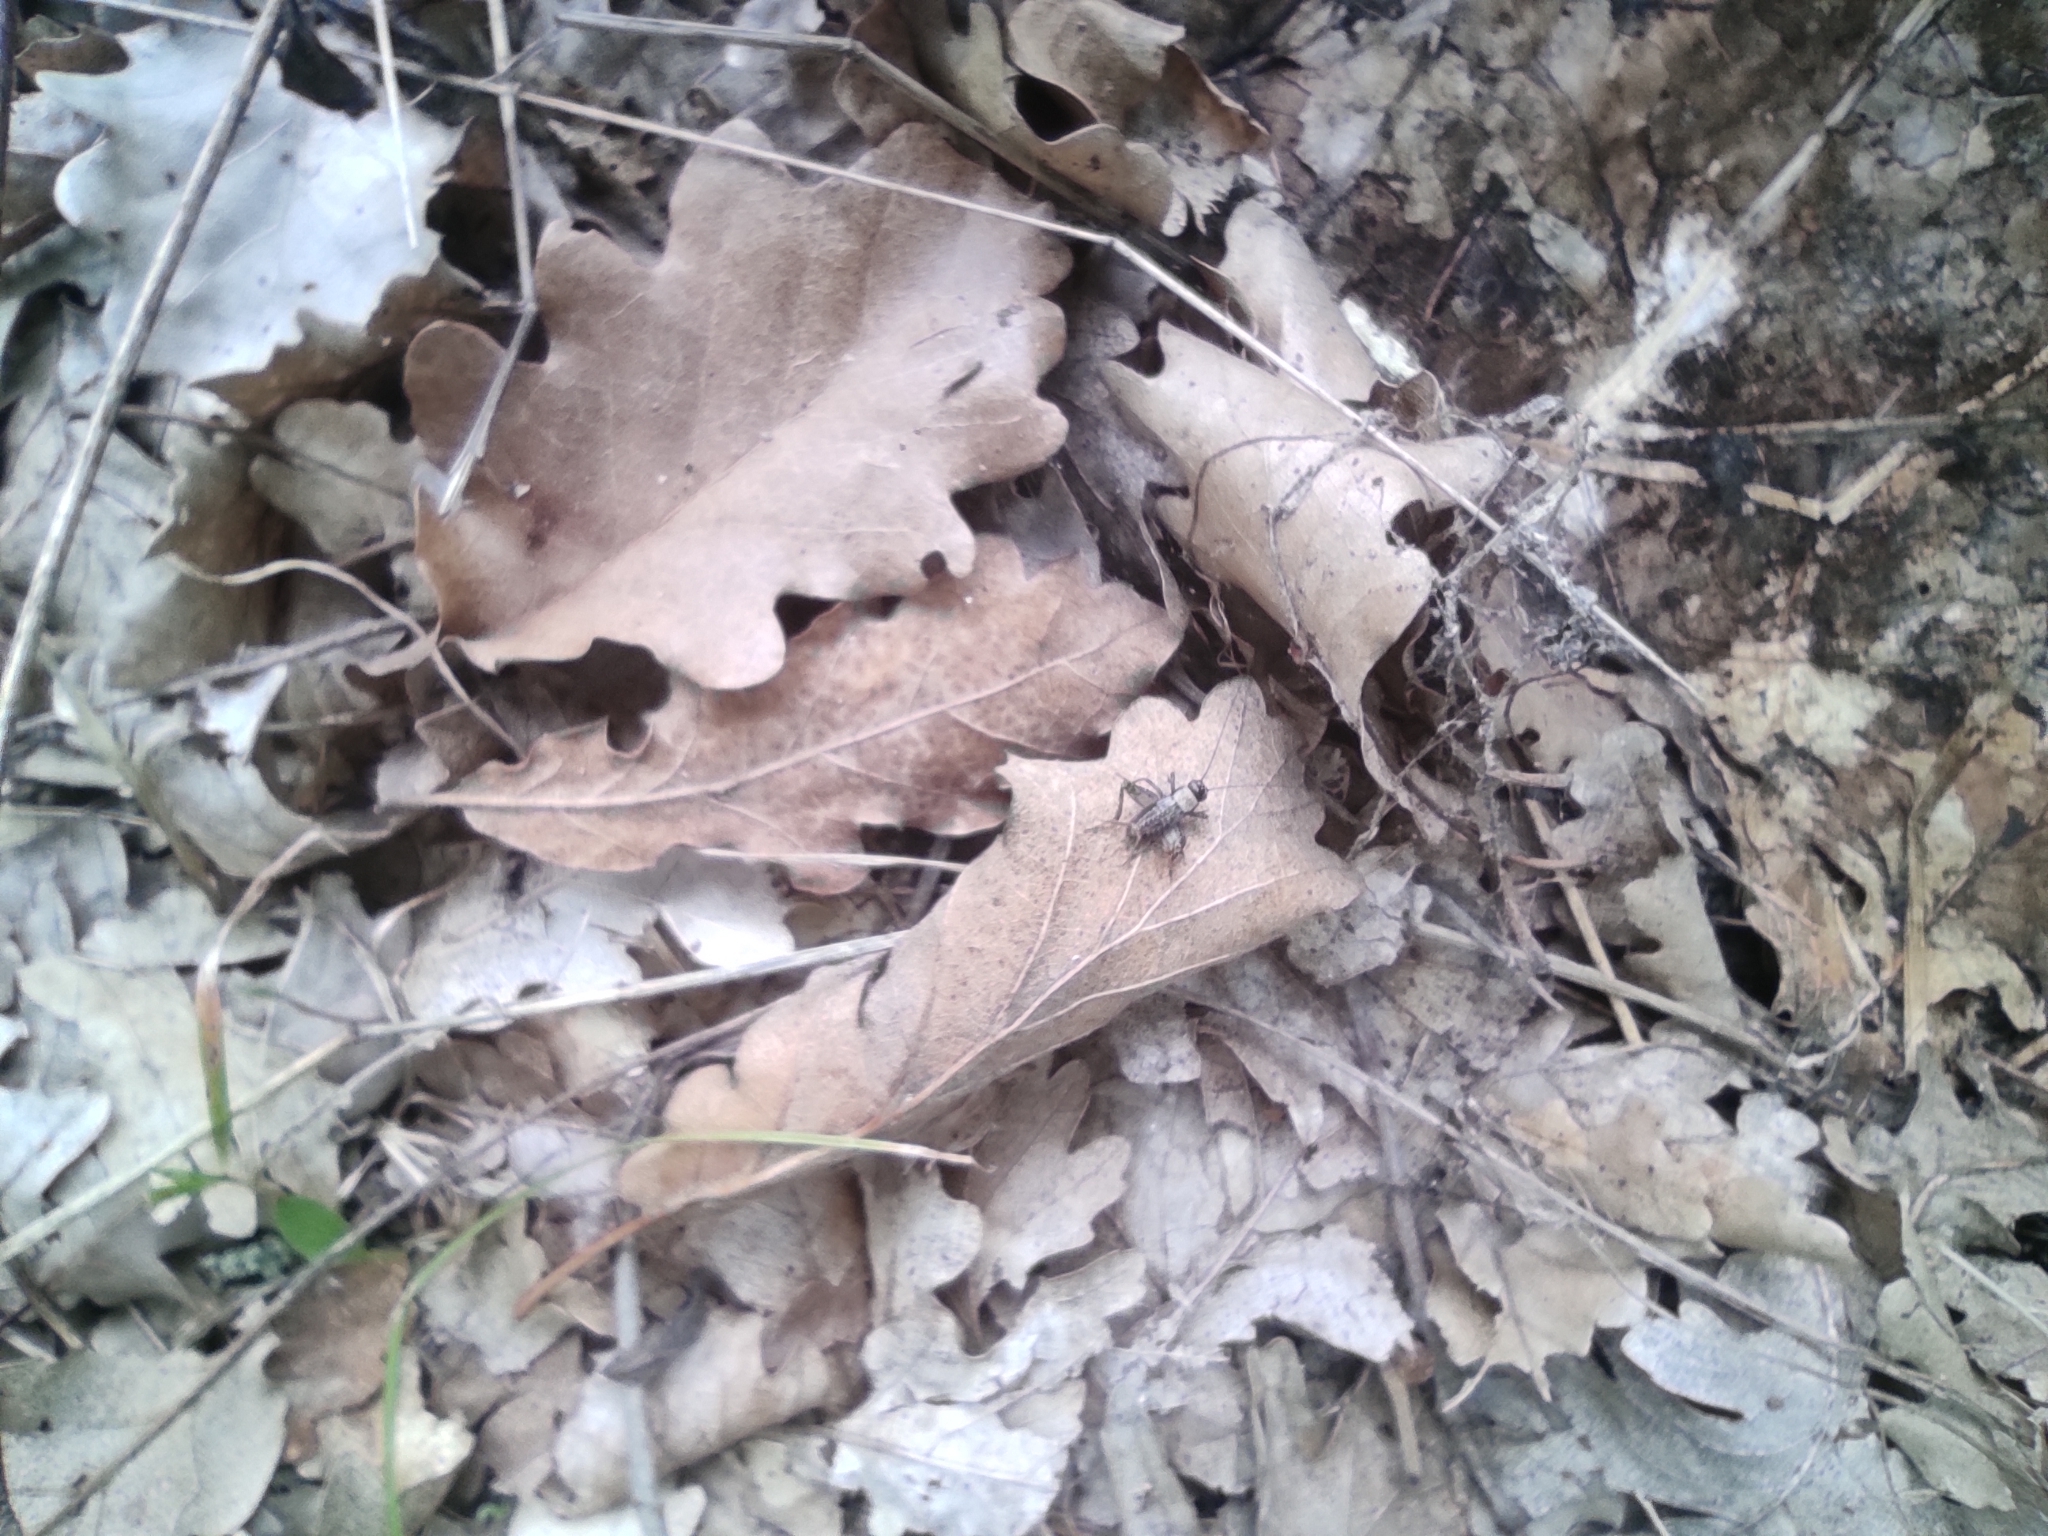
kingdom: Animalia
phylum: Arthropoda
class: Insecta
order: Orthoptera
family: Trigonidiidae
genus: Nemobius
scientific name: Nemobius sylvestris
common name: Wood-cricket
